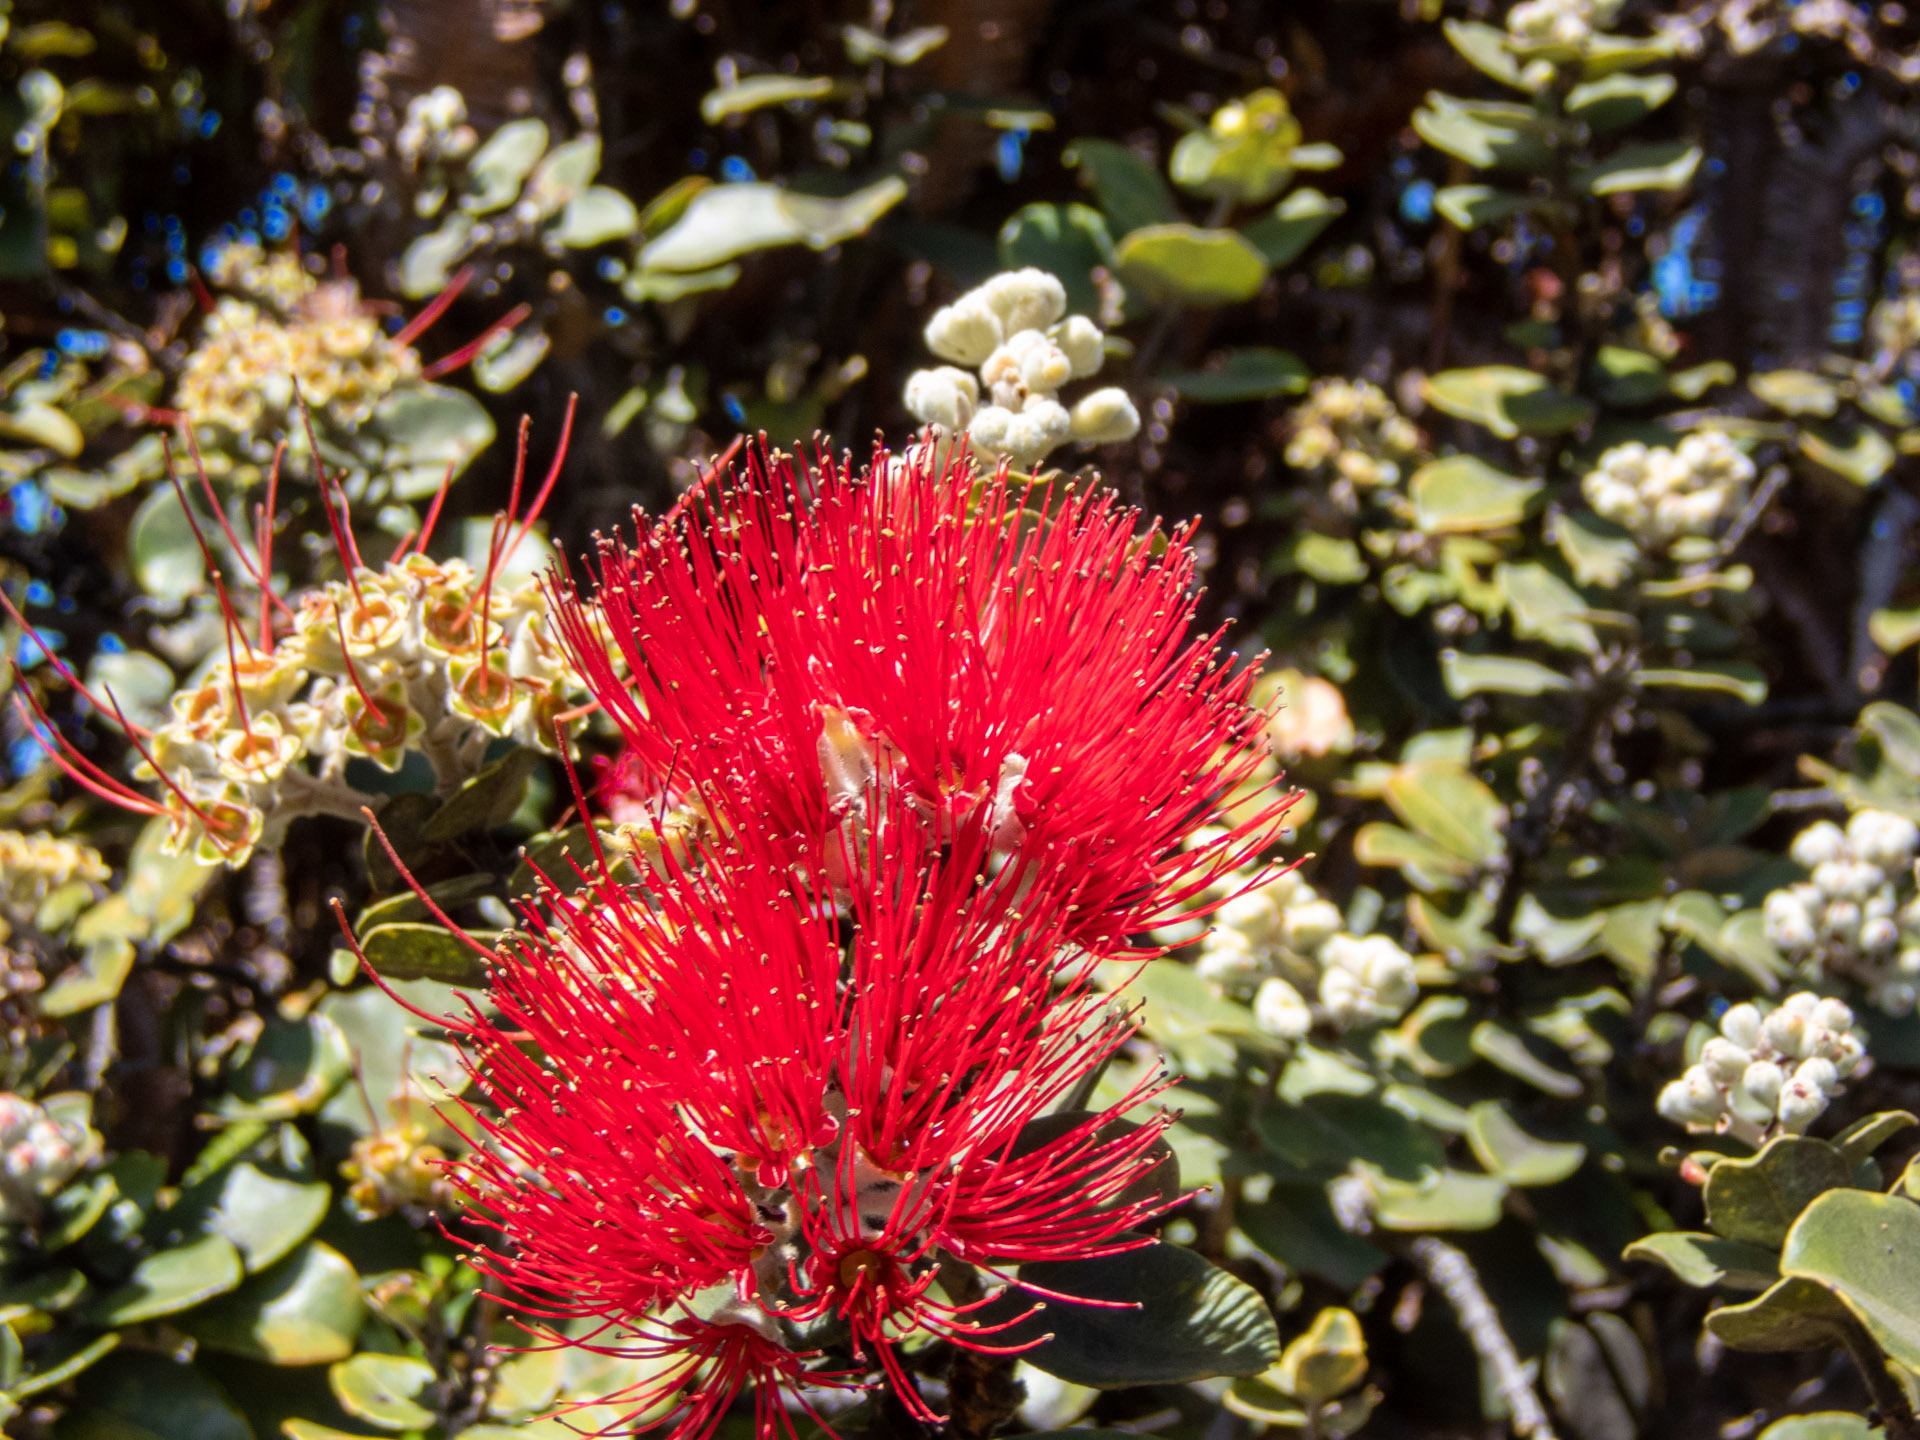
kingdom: Plantae
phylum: Tracheophyta
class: Magnoliopsida
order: Myrtales
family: Myrtaceae
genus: Metrosideros
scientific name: Metrosideros polymorpha
